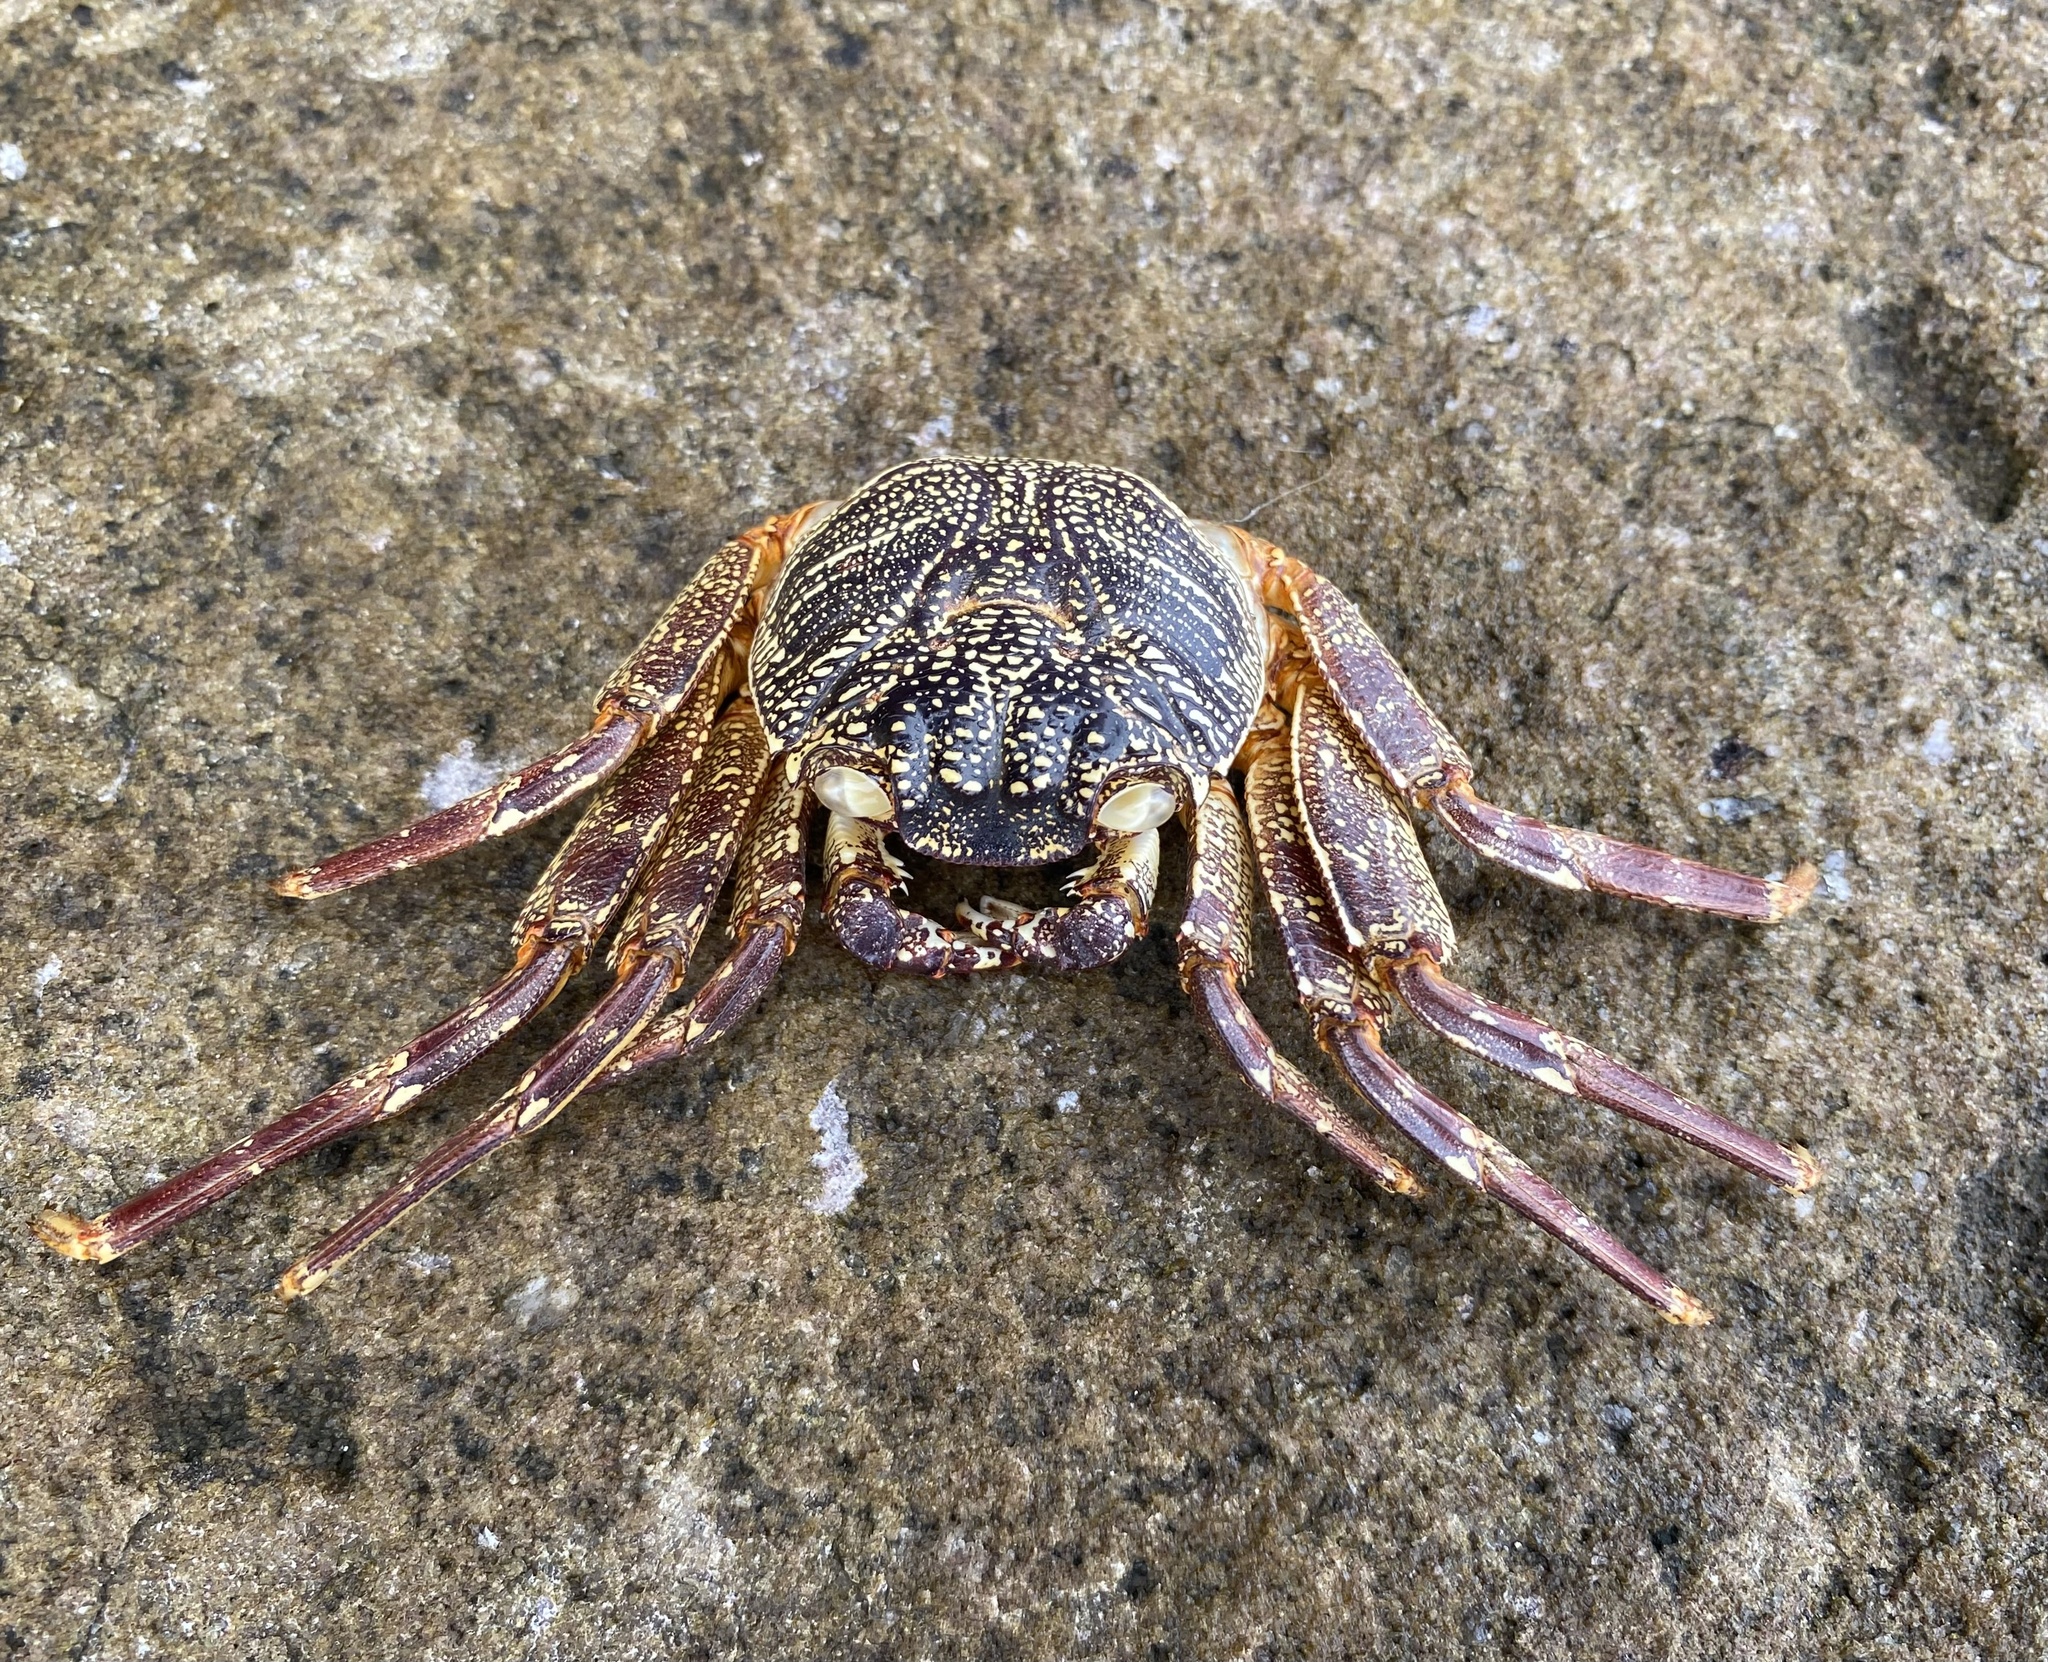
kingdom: Animalia
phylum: Arthropoda
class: Malacostraca
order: Decapoda
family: Grapsidae
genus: Grapsus
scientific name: Grapsus tenuicrustatus
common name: Natal lightfoot crab
